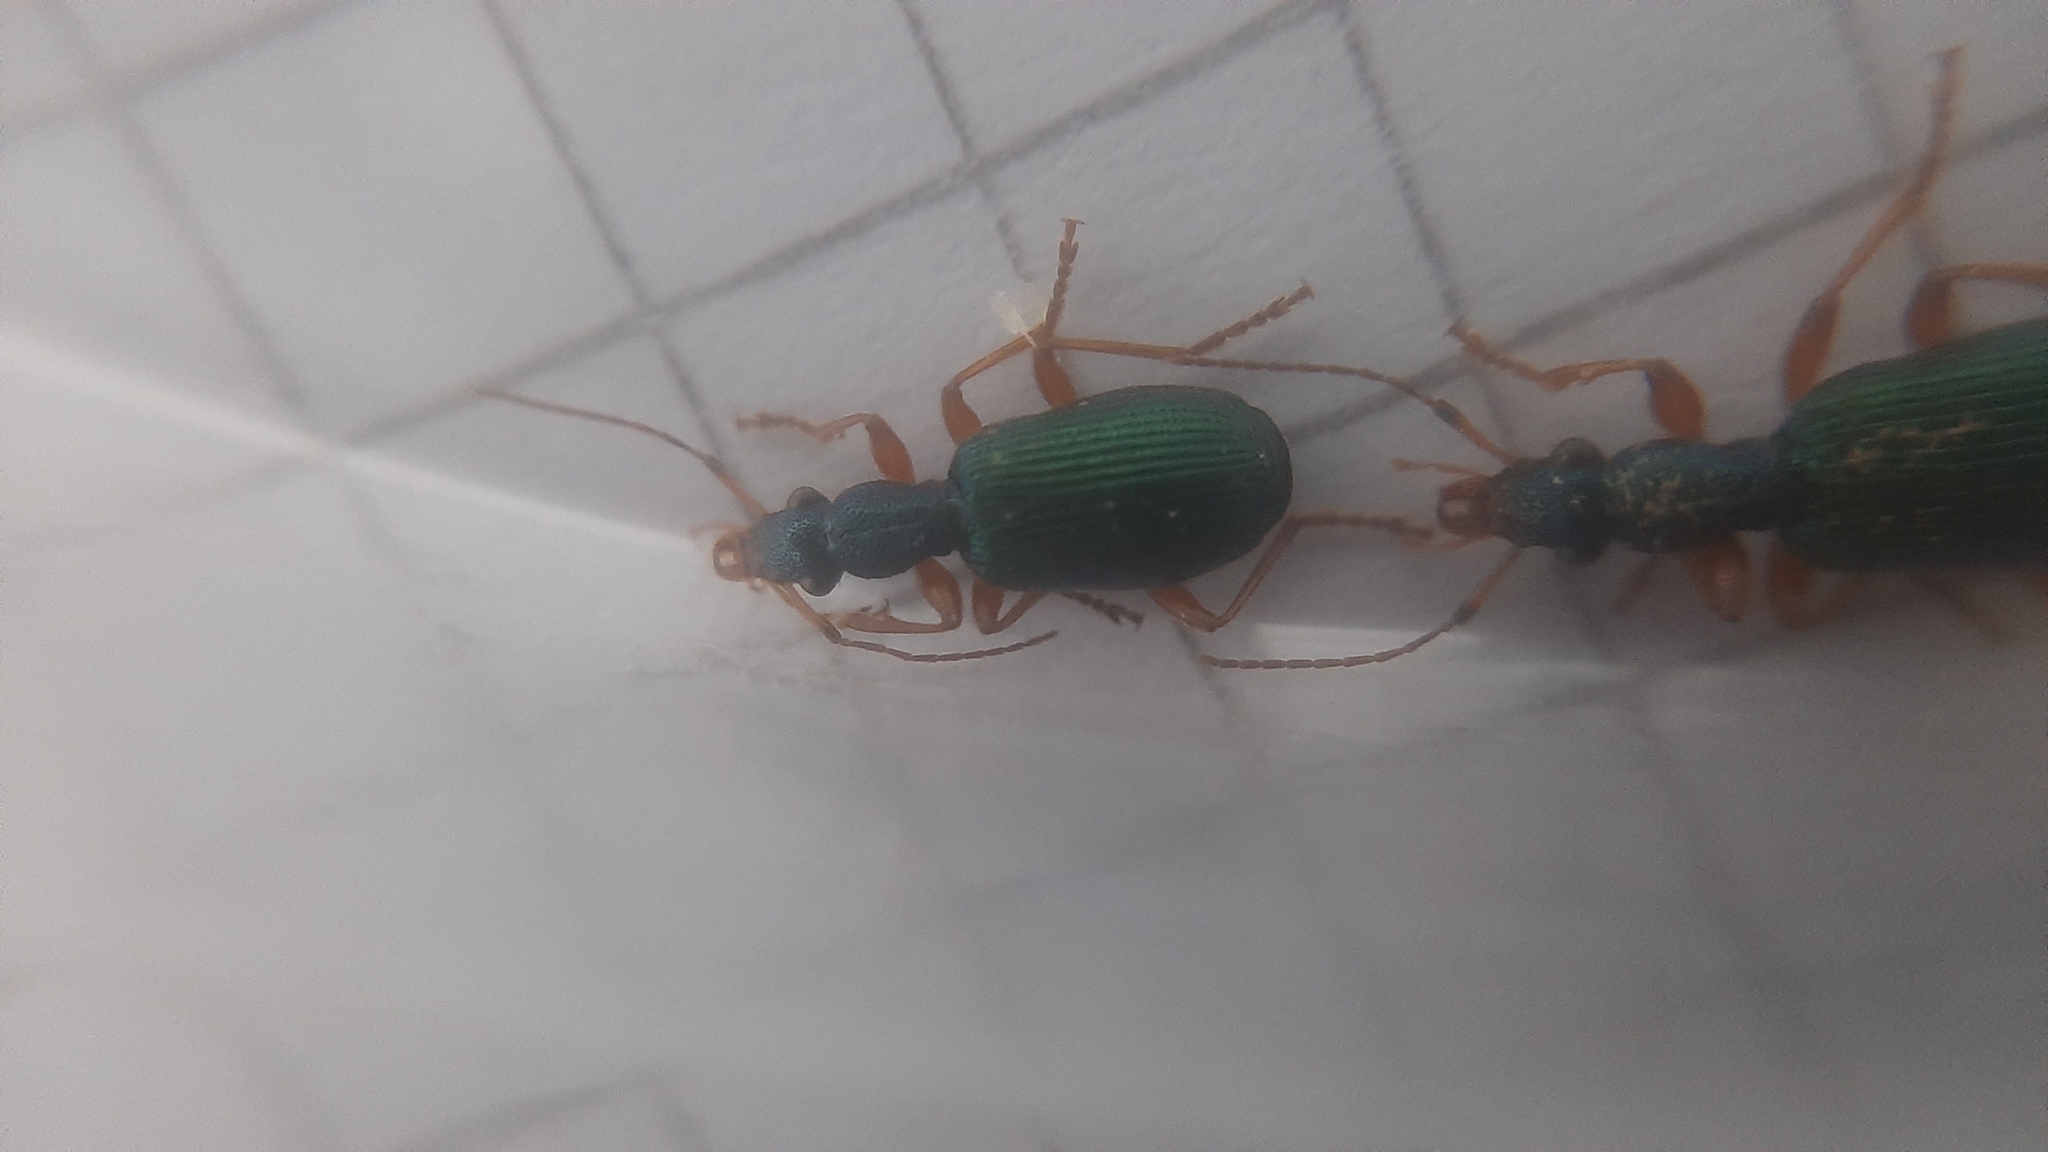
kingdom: Animalia
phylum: Arthropoda
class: Insecta
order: Coleoptera
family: Carabidae
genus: Drypta
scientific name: Drypta dentata
